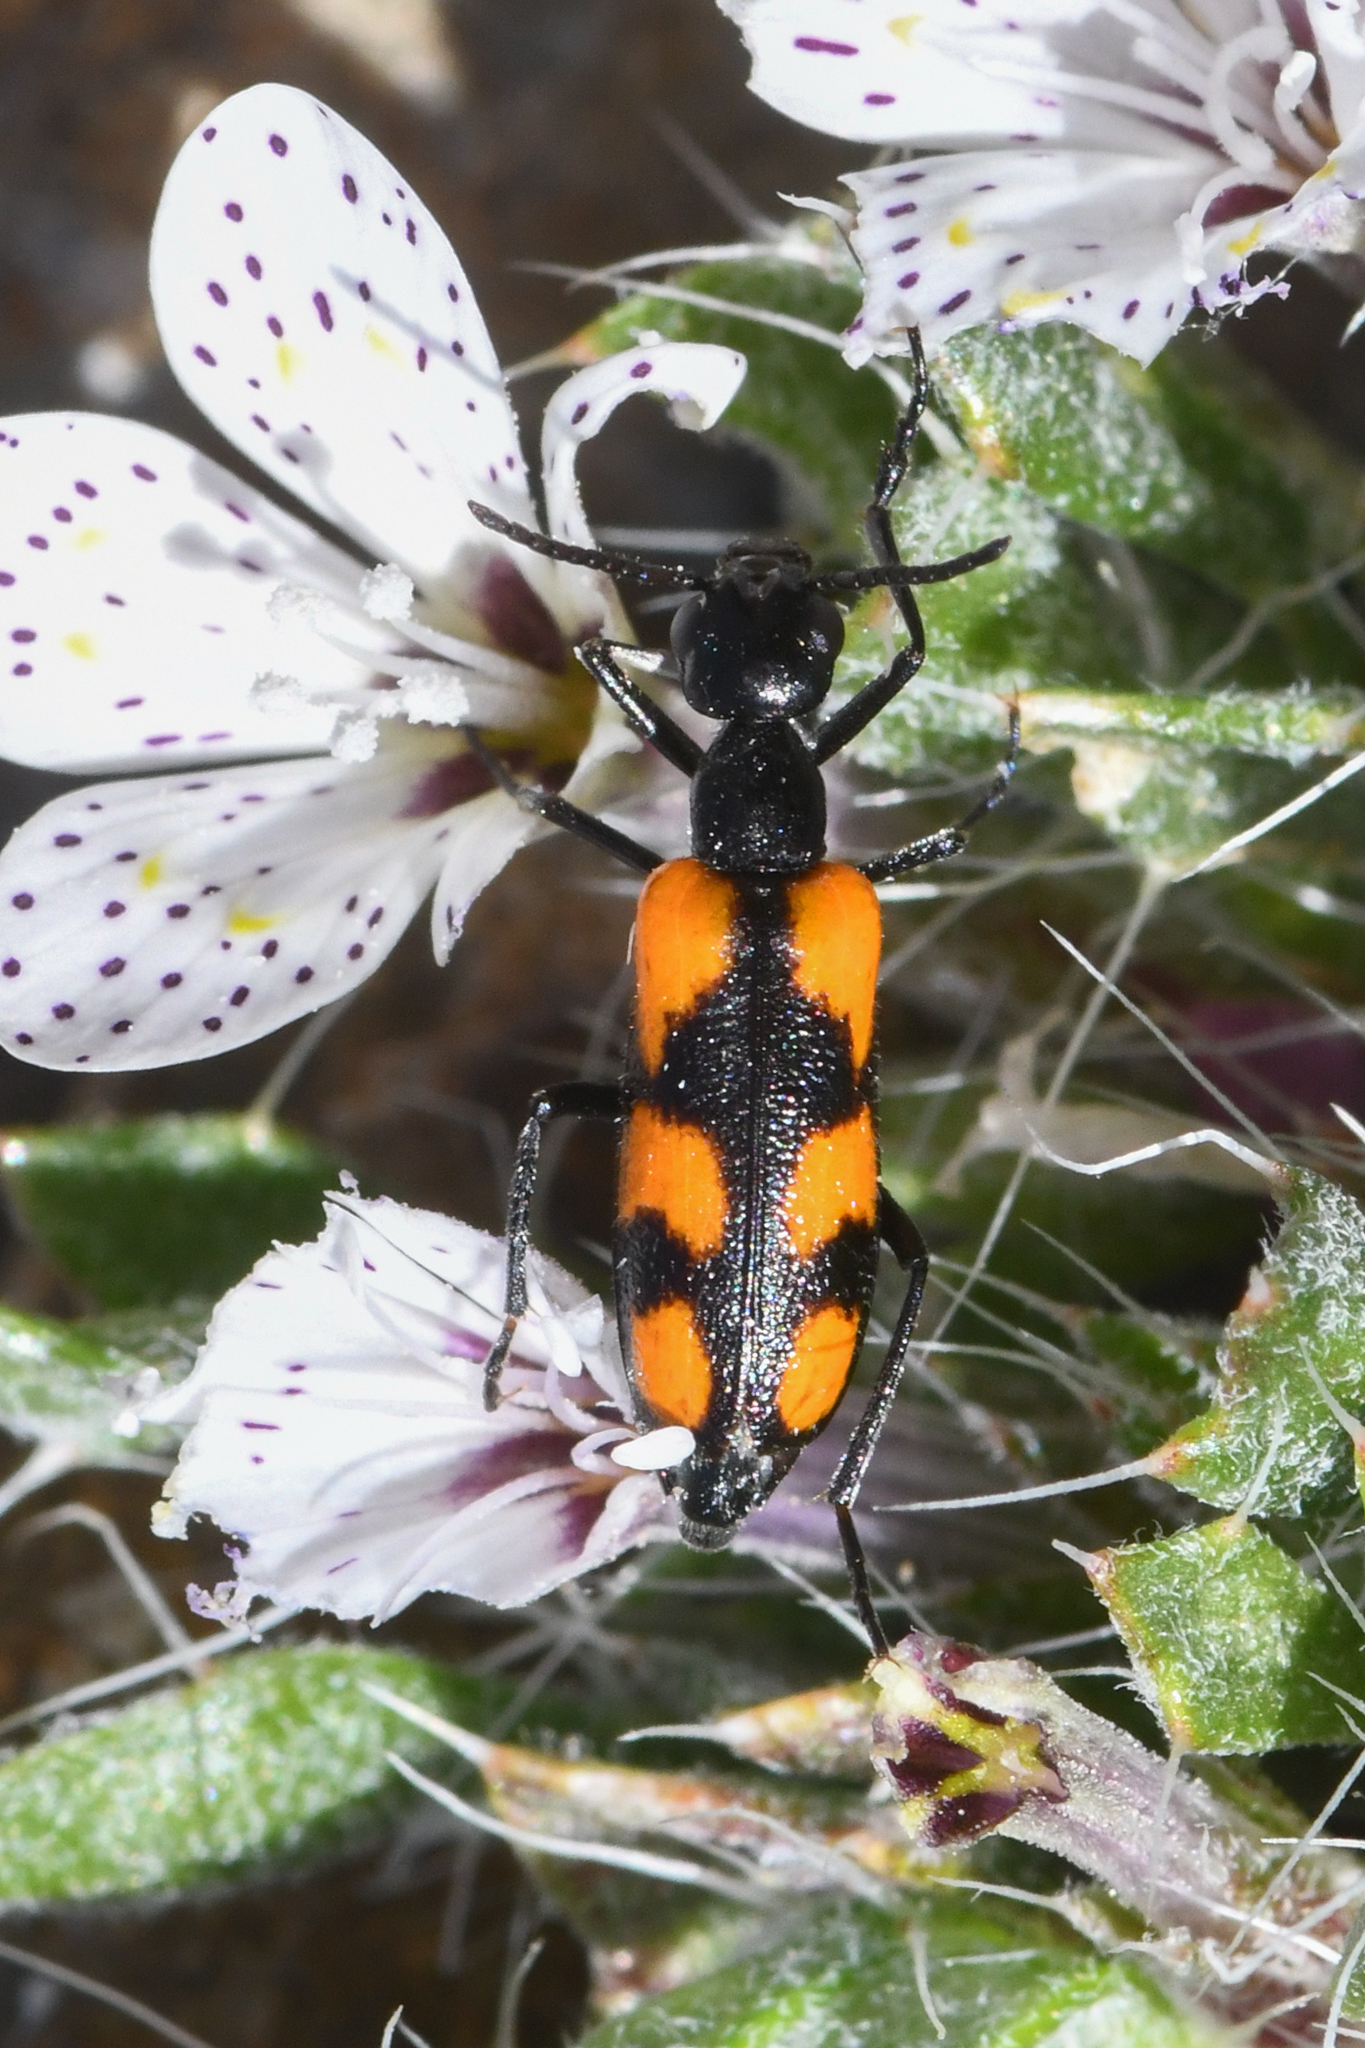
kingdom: Animalia
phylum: Arthropoda
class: Insecta
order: Coleoptera
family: Meloidae
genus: Eupompha
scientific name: Eupompha elegans
